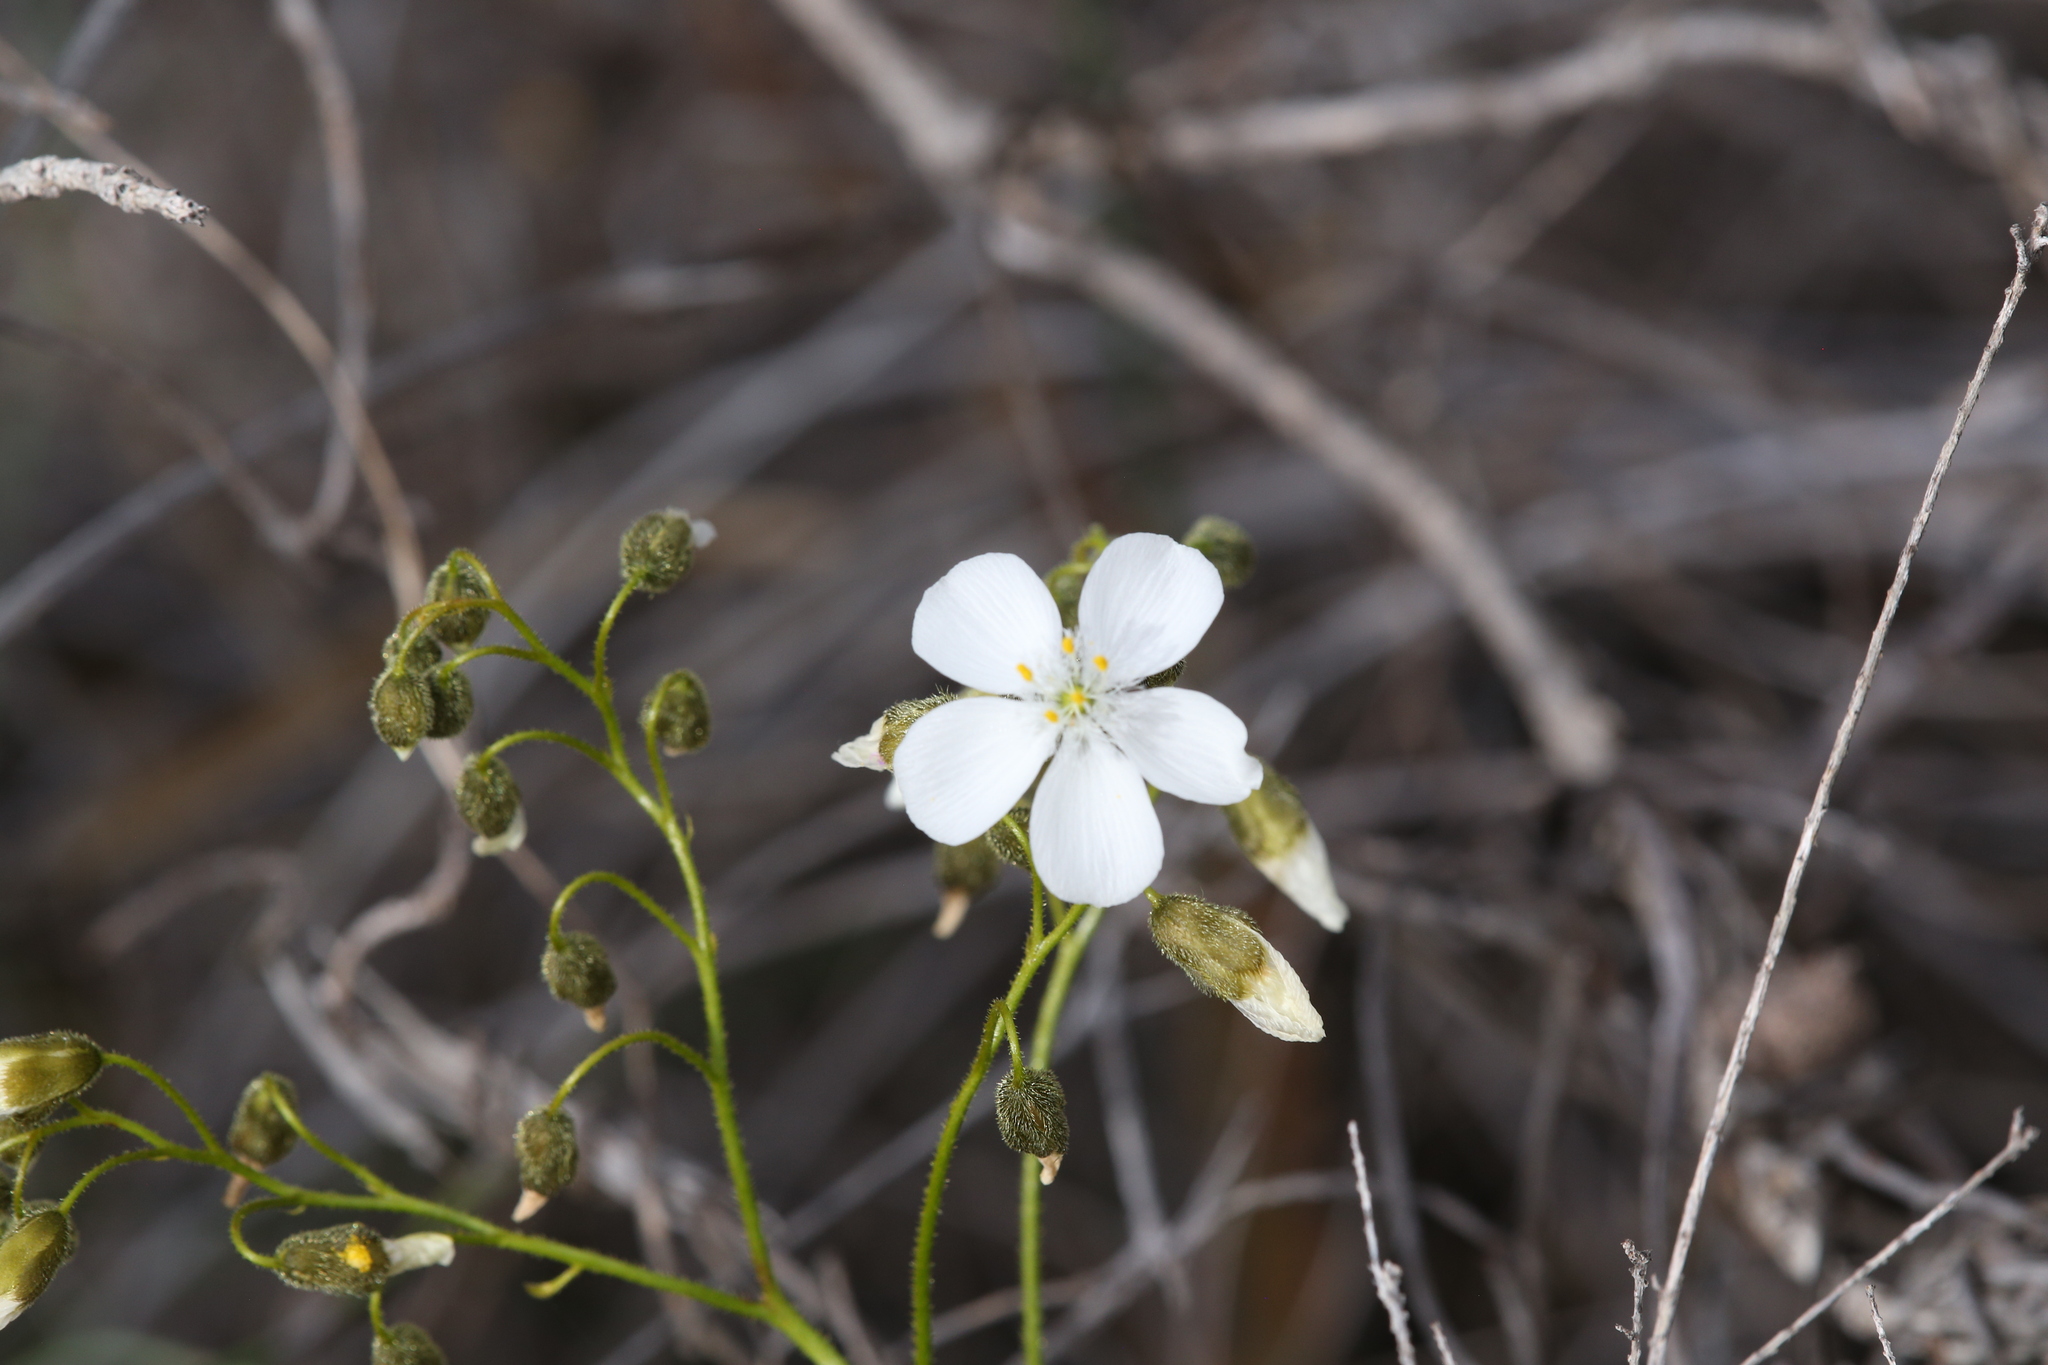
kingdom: Plantae
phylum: Tracheophyta
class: Magnoliopsida
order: Caryophyllales
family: Droseraceae
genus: Drosera
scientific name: Drosera hirsuta
